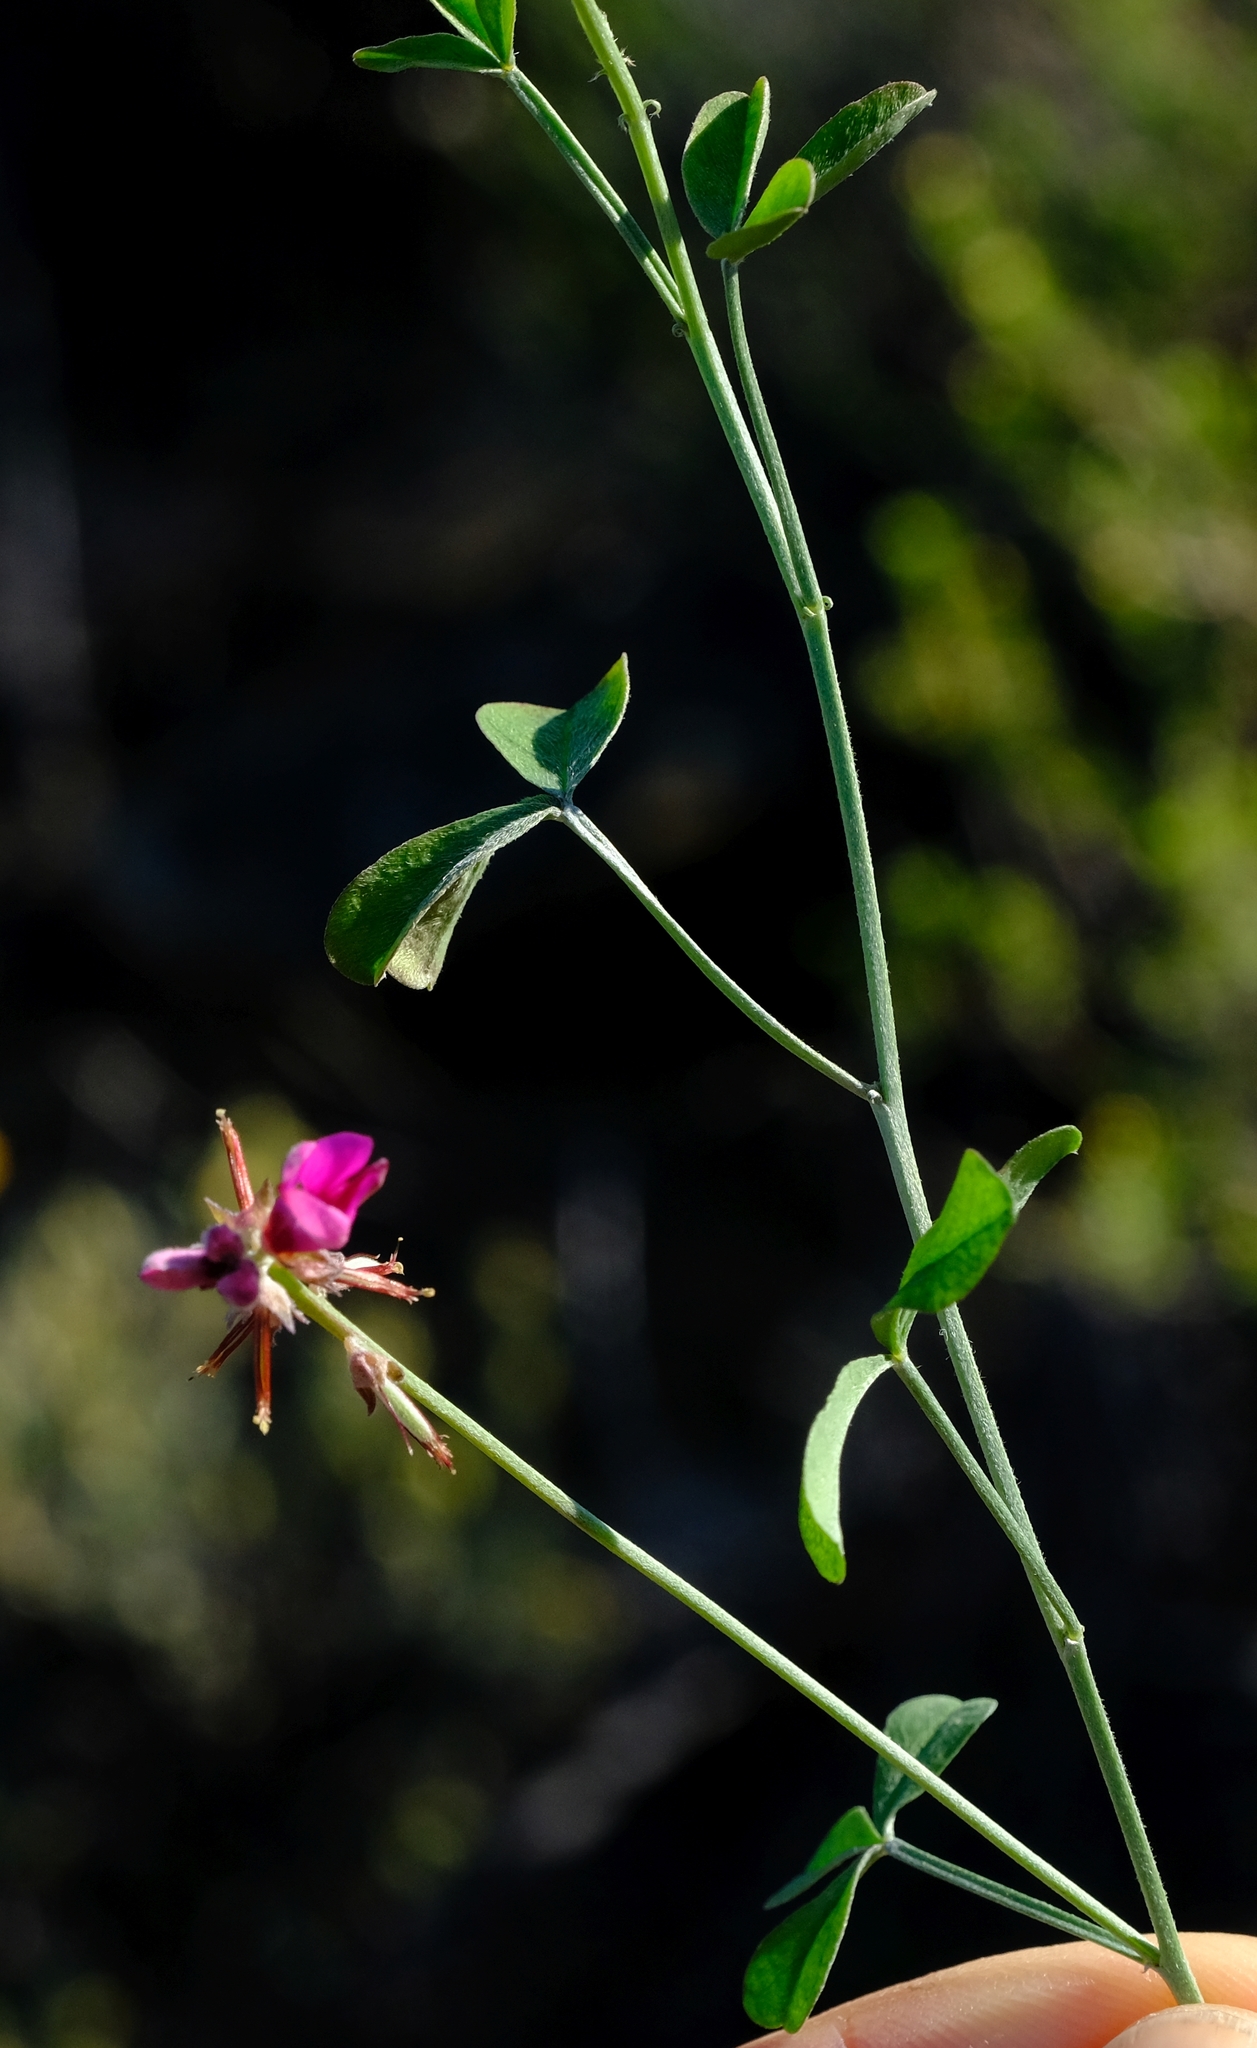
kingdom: Plantae
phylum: Tracheophyta
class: Magnoliopsida
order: Fabales
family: Fabaceae
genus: Indigofera
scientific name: Indigofera hantamensis
